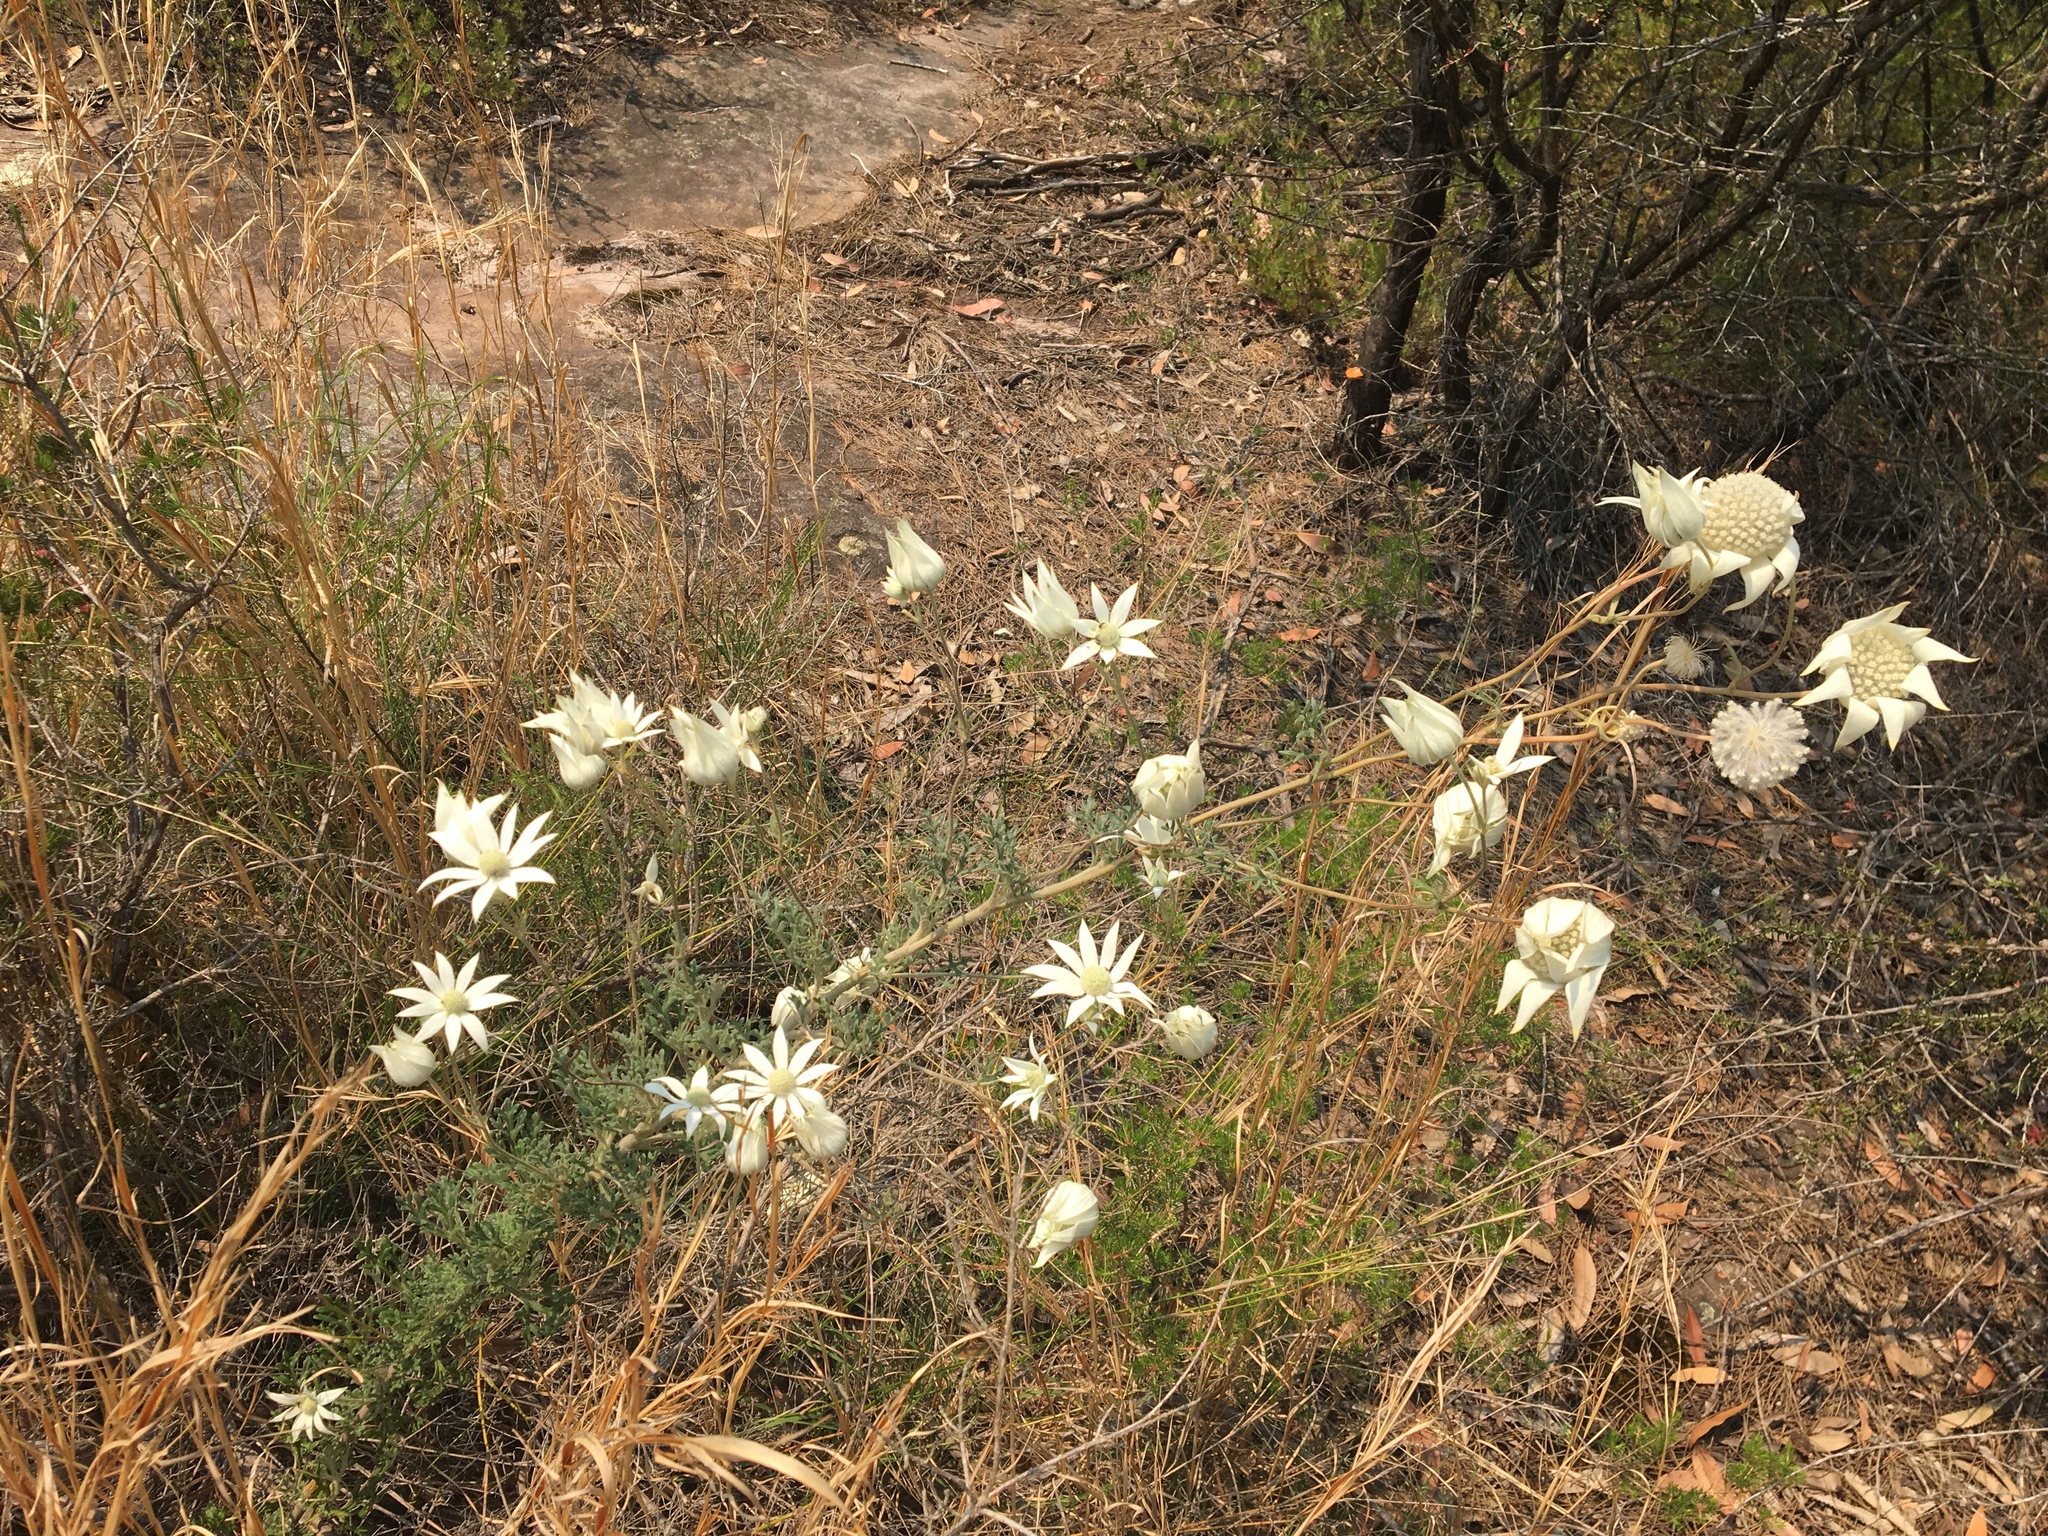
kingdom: Plantae
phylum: Tracheophyta
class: Magnoliopsida
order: Apiales
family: Apiaceae
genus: Actinotus
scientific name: Actinotus helianthi
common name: Flannel-flower
